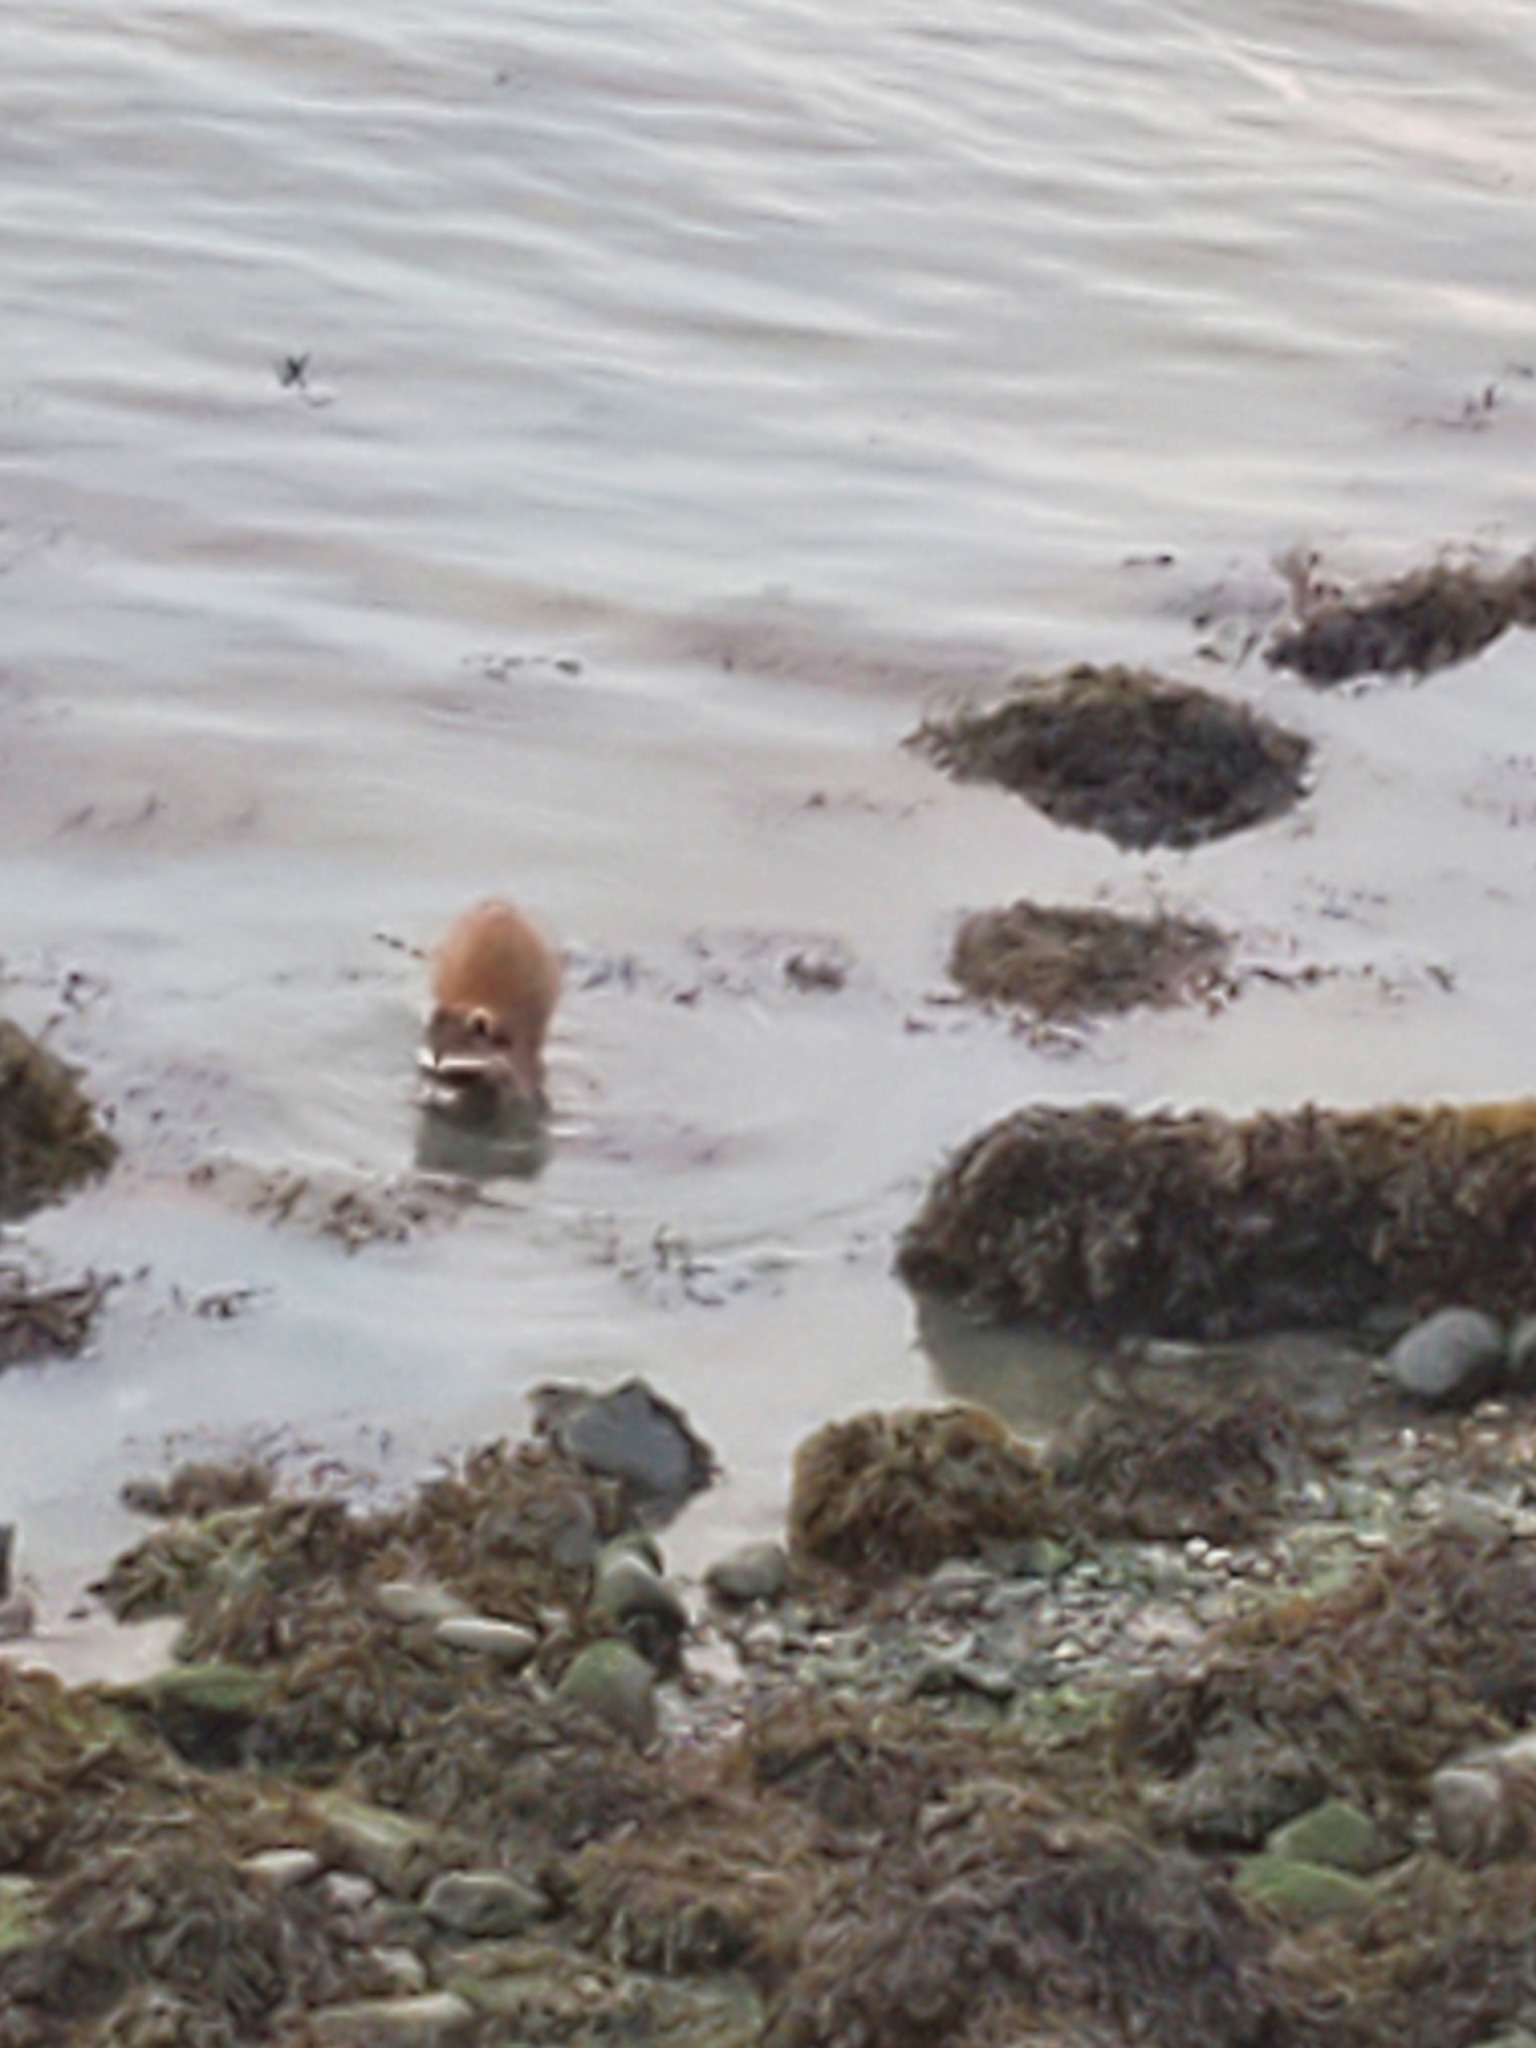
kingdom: Animalia
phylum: Chordata
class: Mammalia
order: Carnivora
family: Procyonidae
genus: Procyon
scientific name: Procyon lotor
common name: Raccoon
